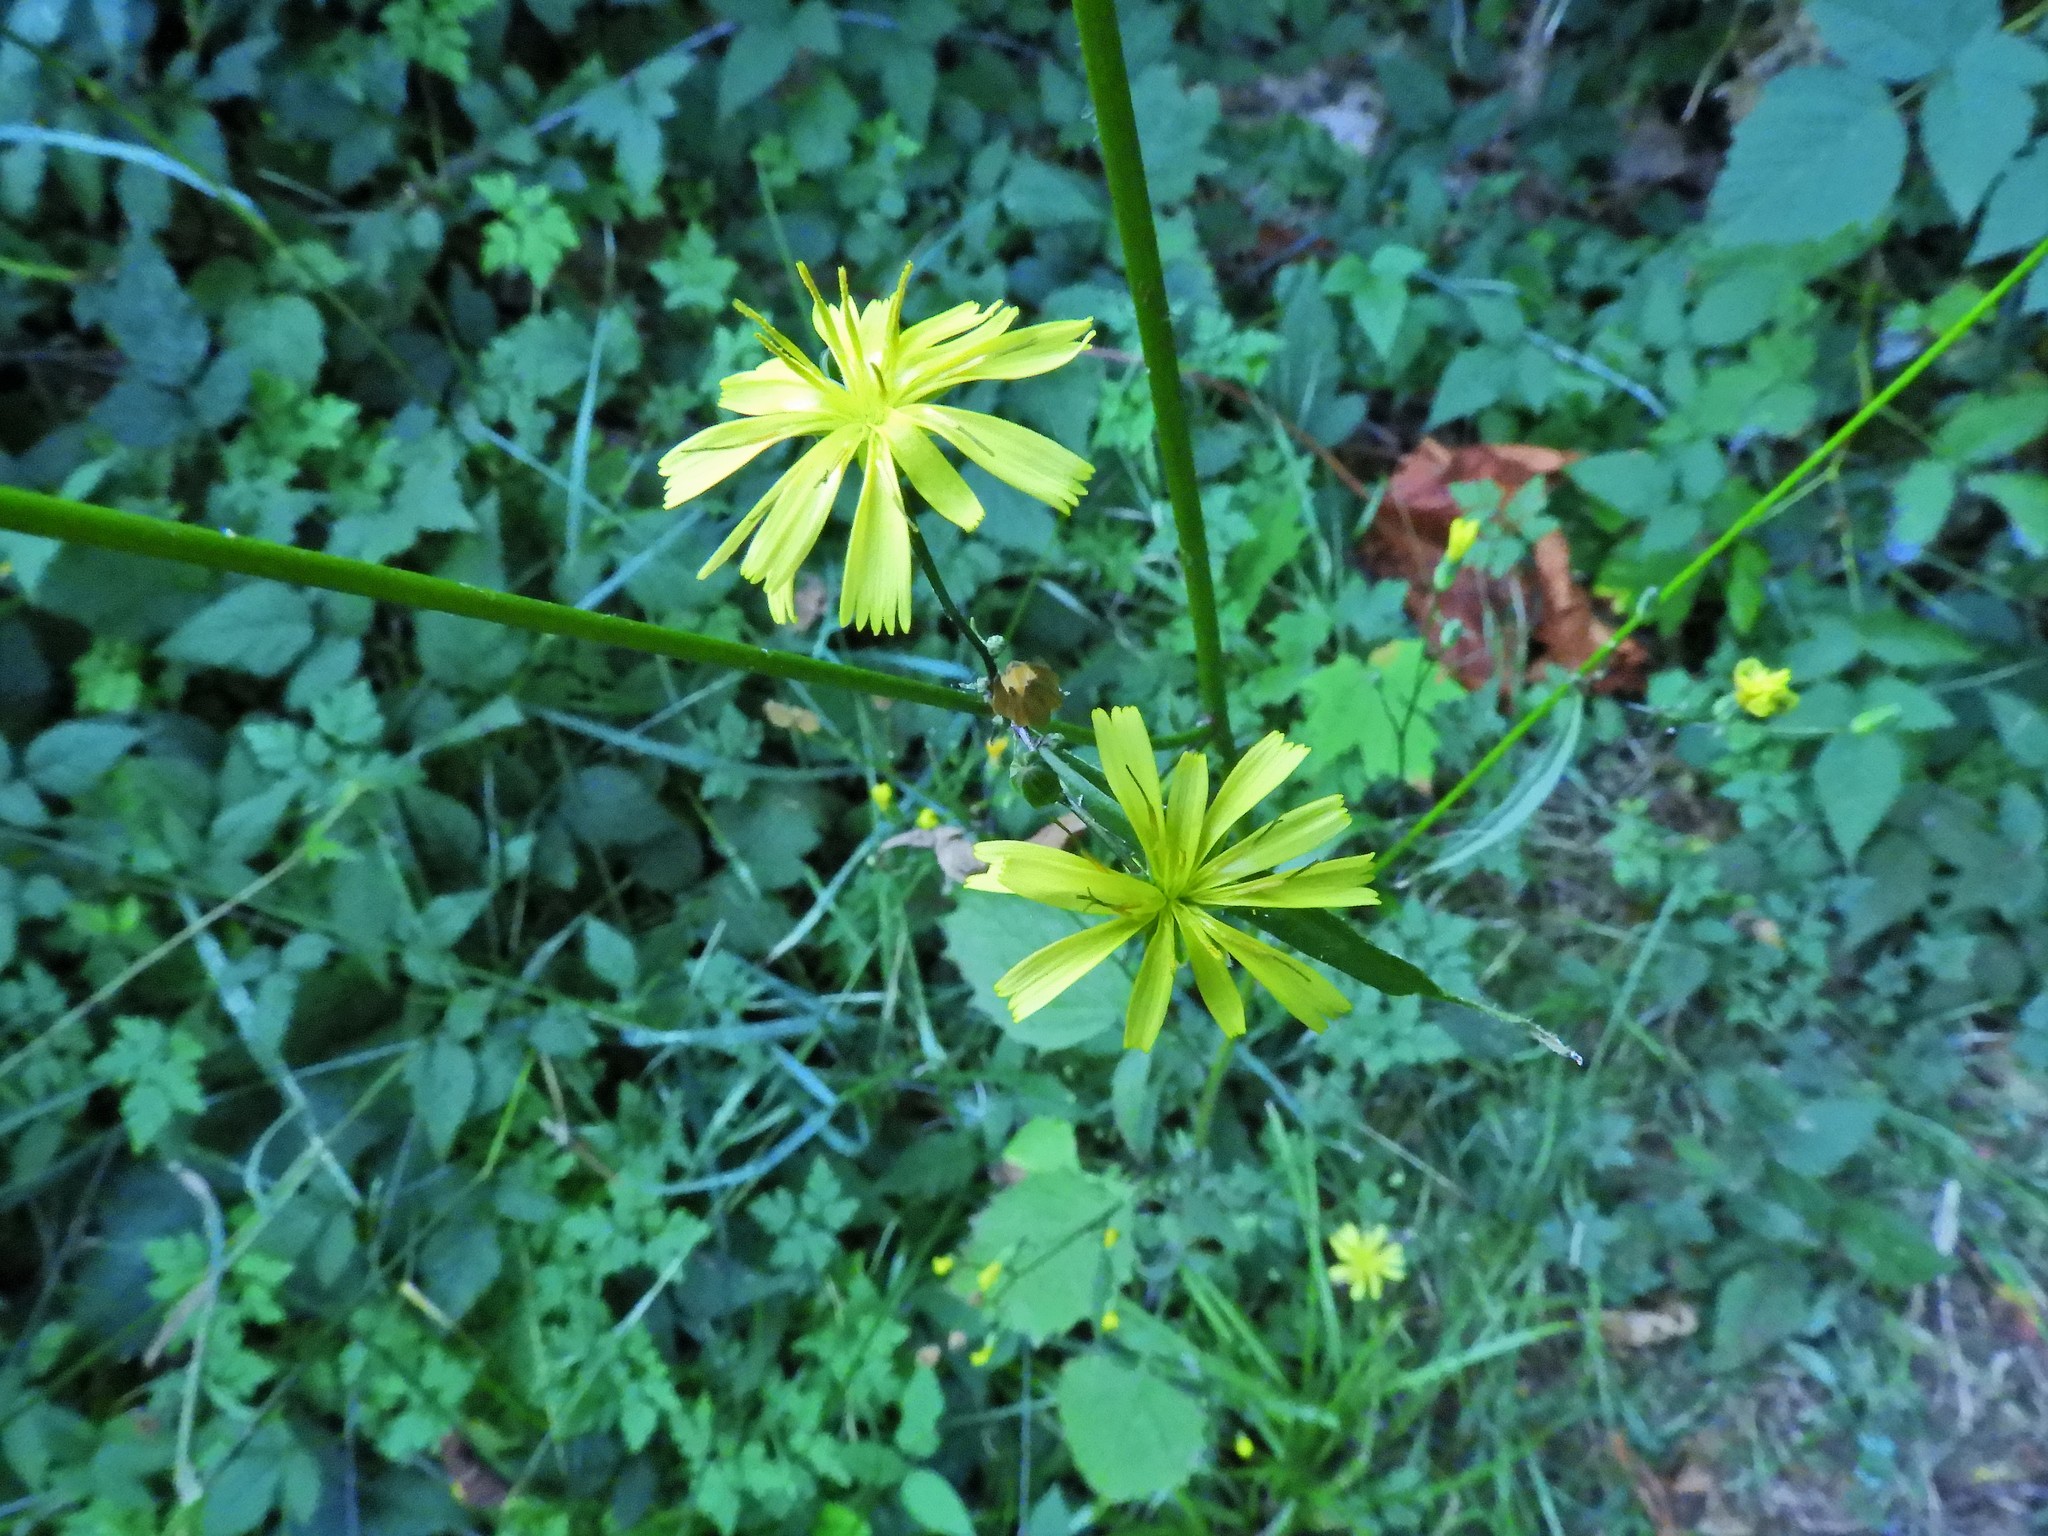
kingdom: Plantae
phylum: Tracheophyta
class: Magnoliopsida
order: Asterales
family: Asteraceae
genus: Lapsana
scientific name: Lapsana communis
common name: Nipplewort
